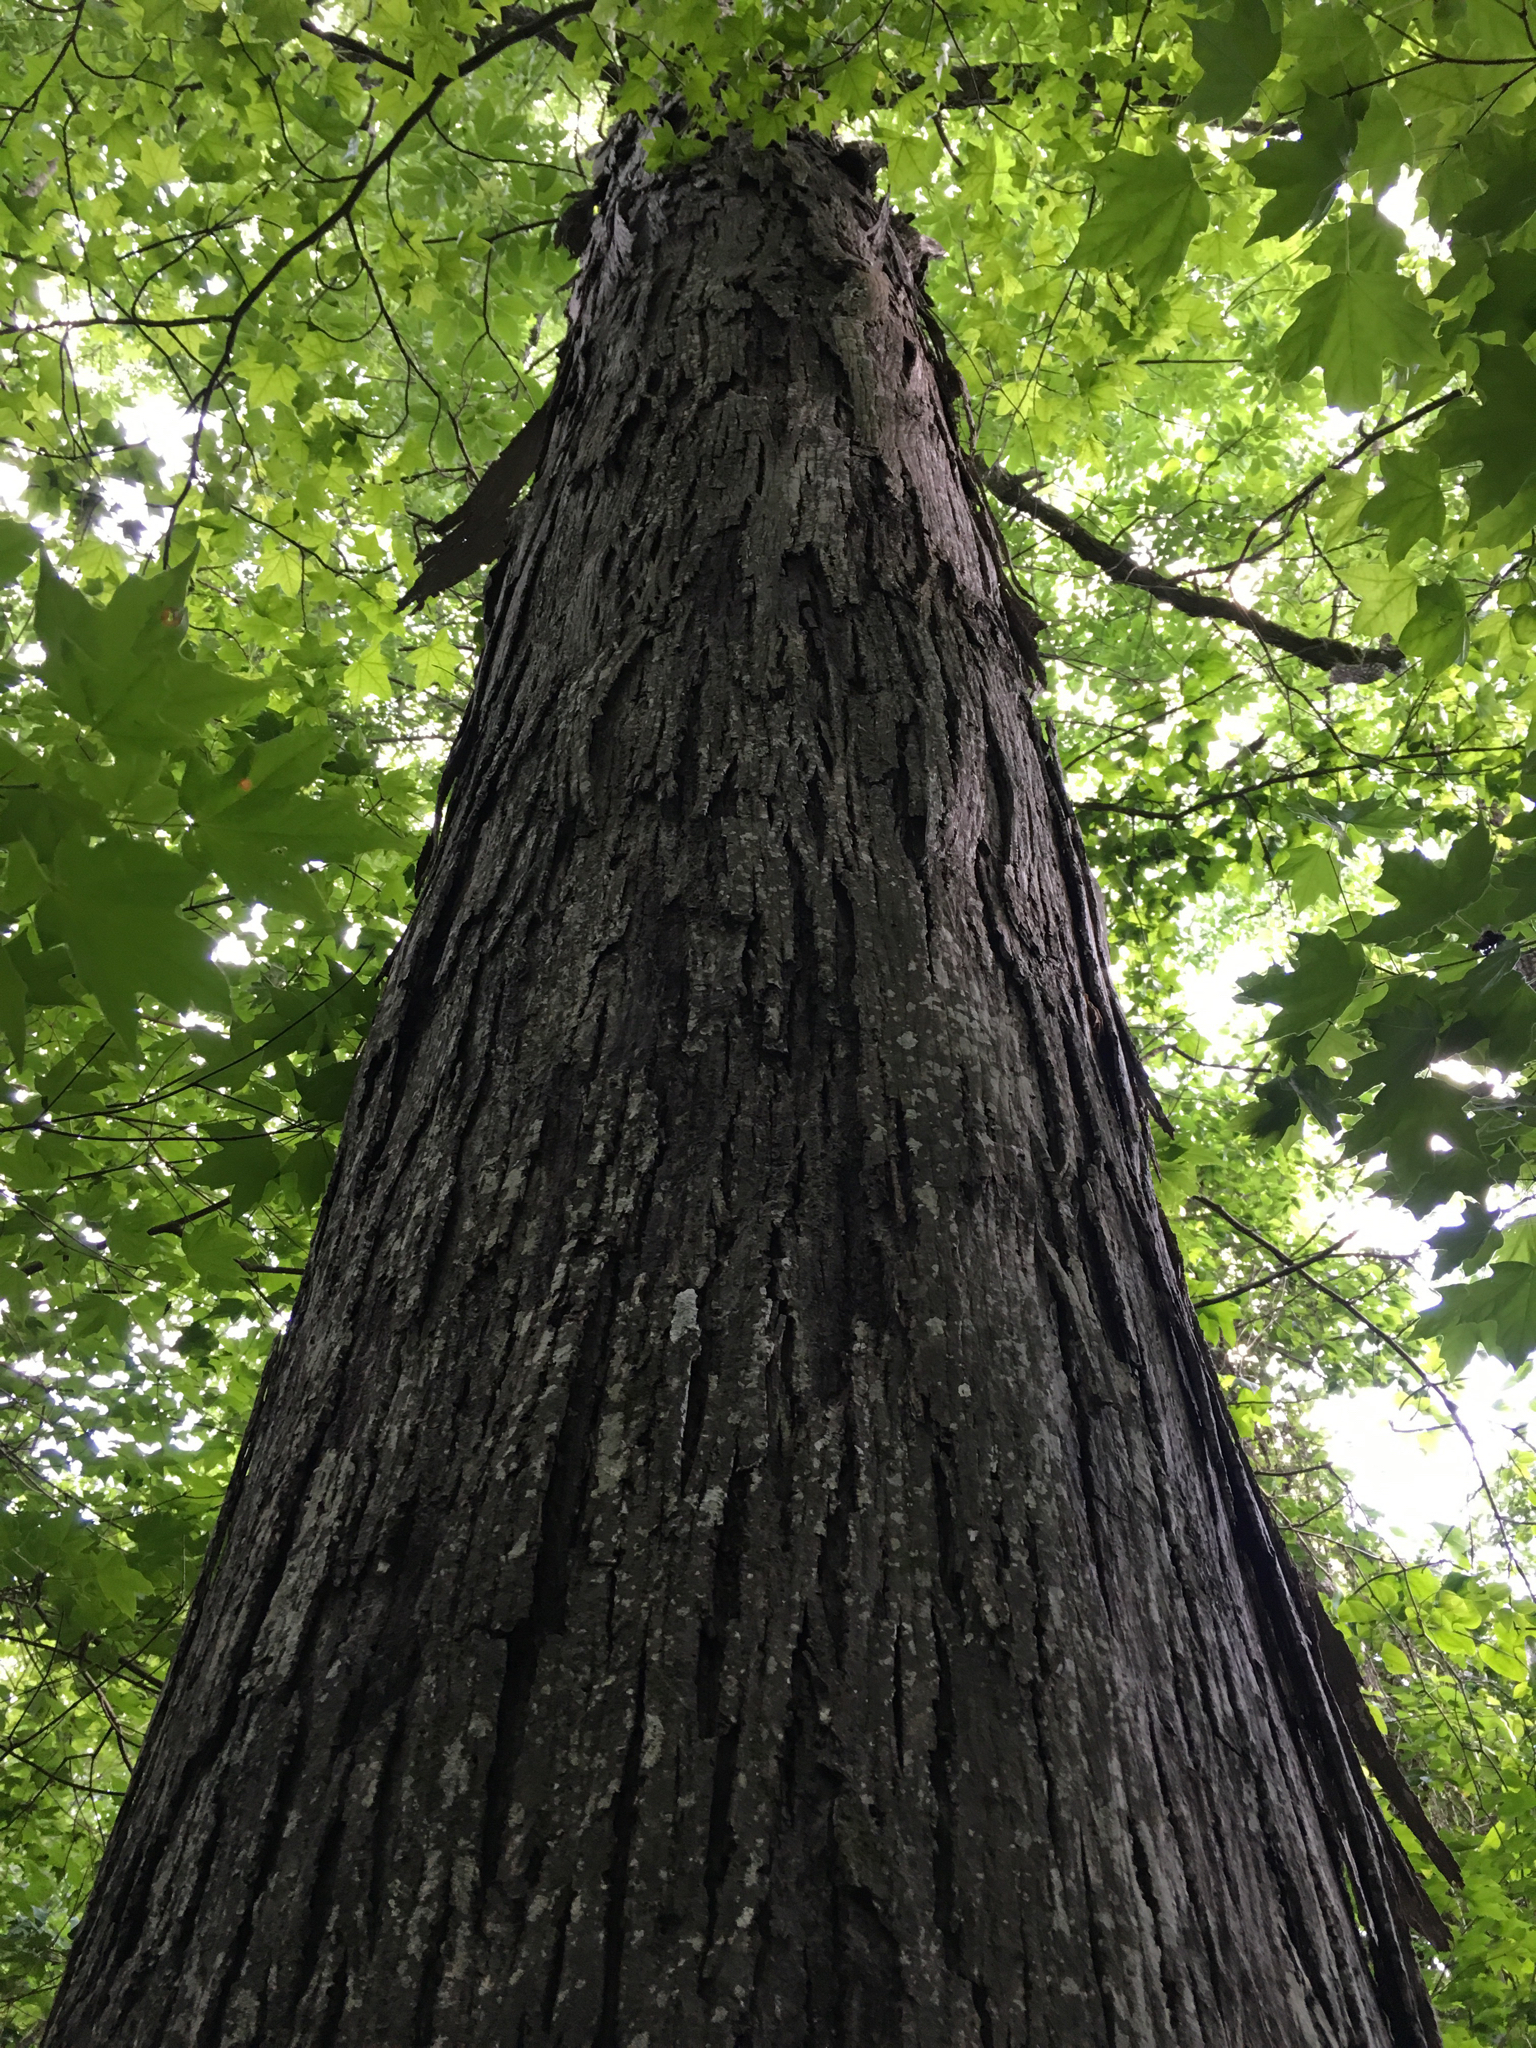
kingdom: Plantae
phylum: Tracheophyta
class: Magnoliopsida
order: Fagales
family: Juglandaceae
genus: Carya
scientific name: Carya carolinae-septentrionalis
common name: Carolina hickory
